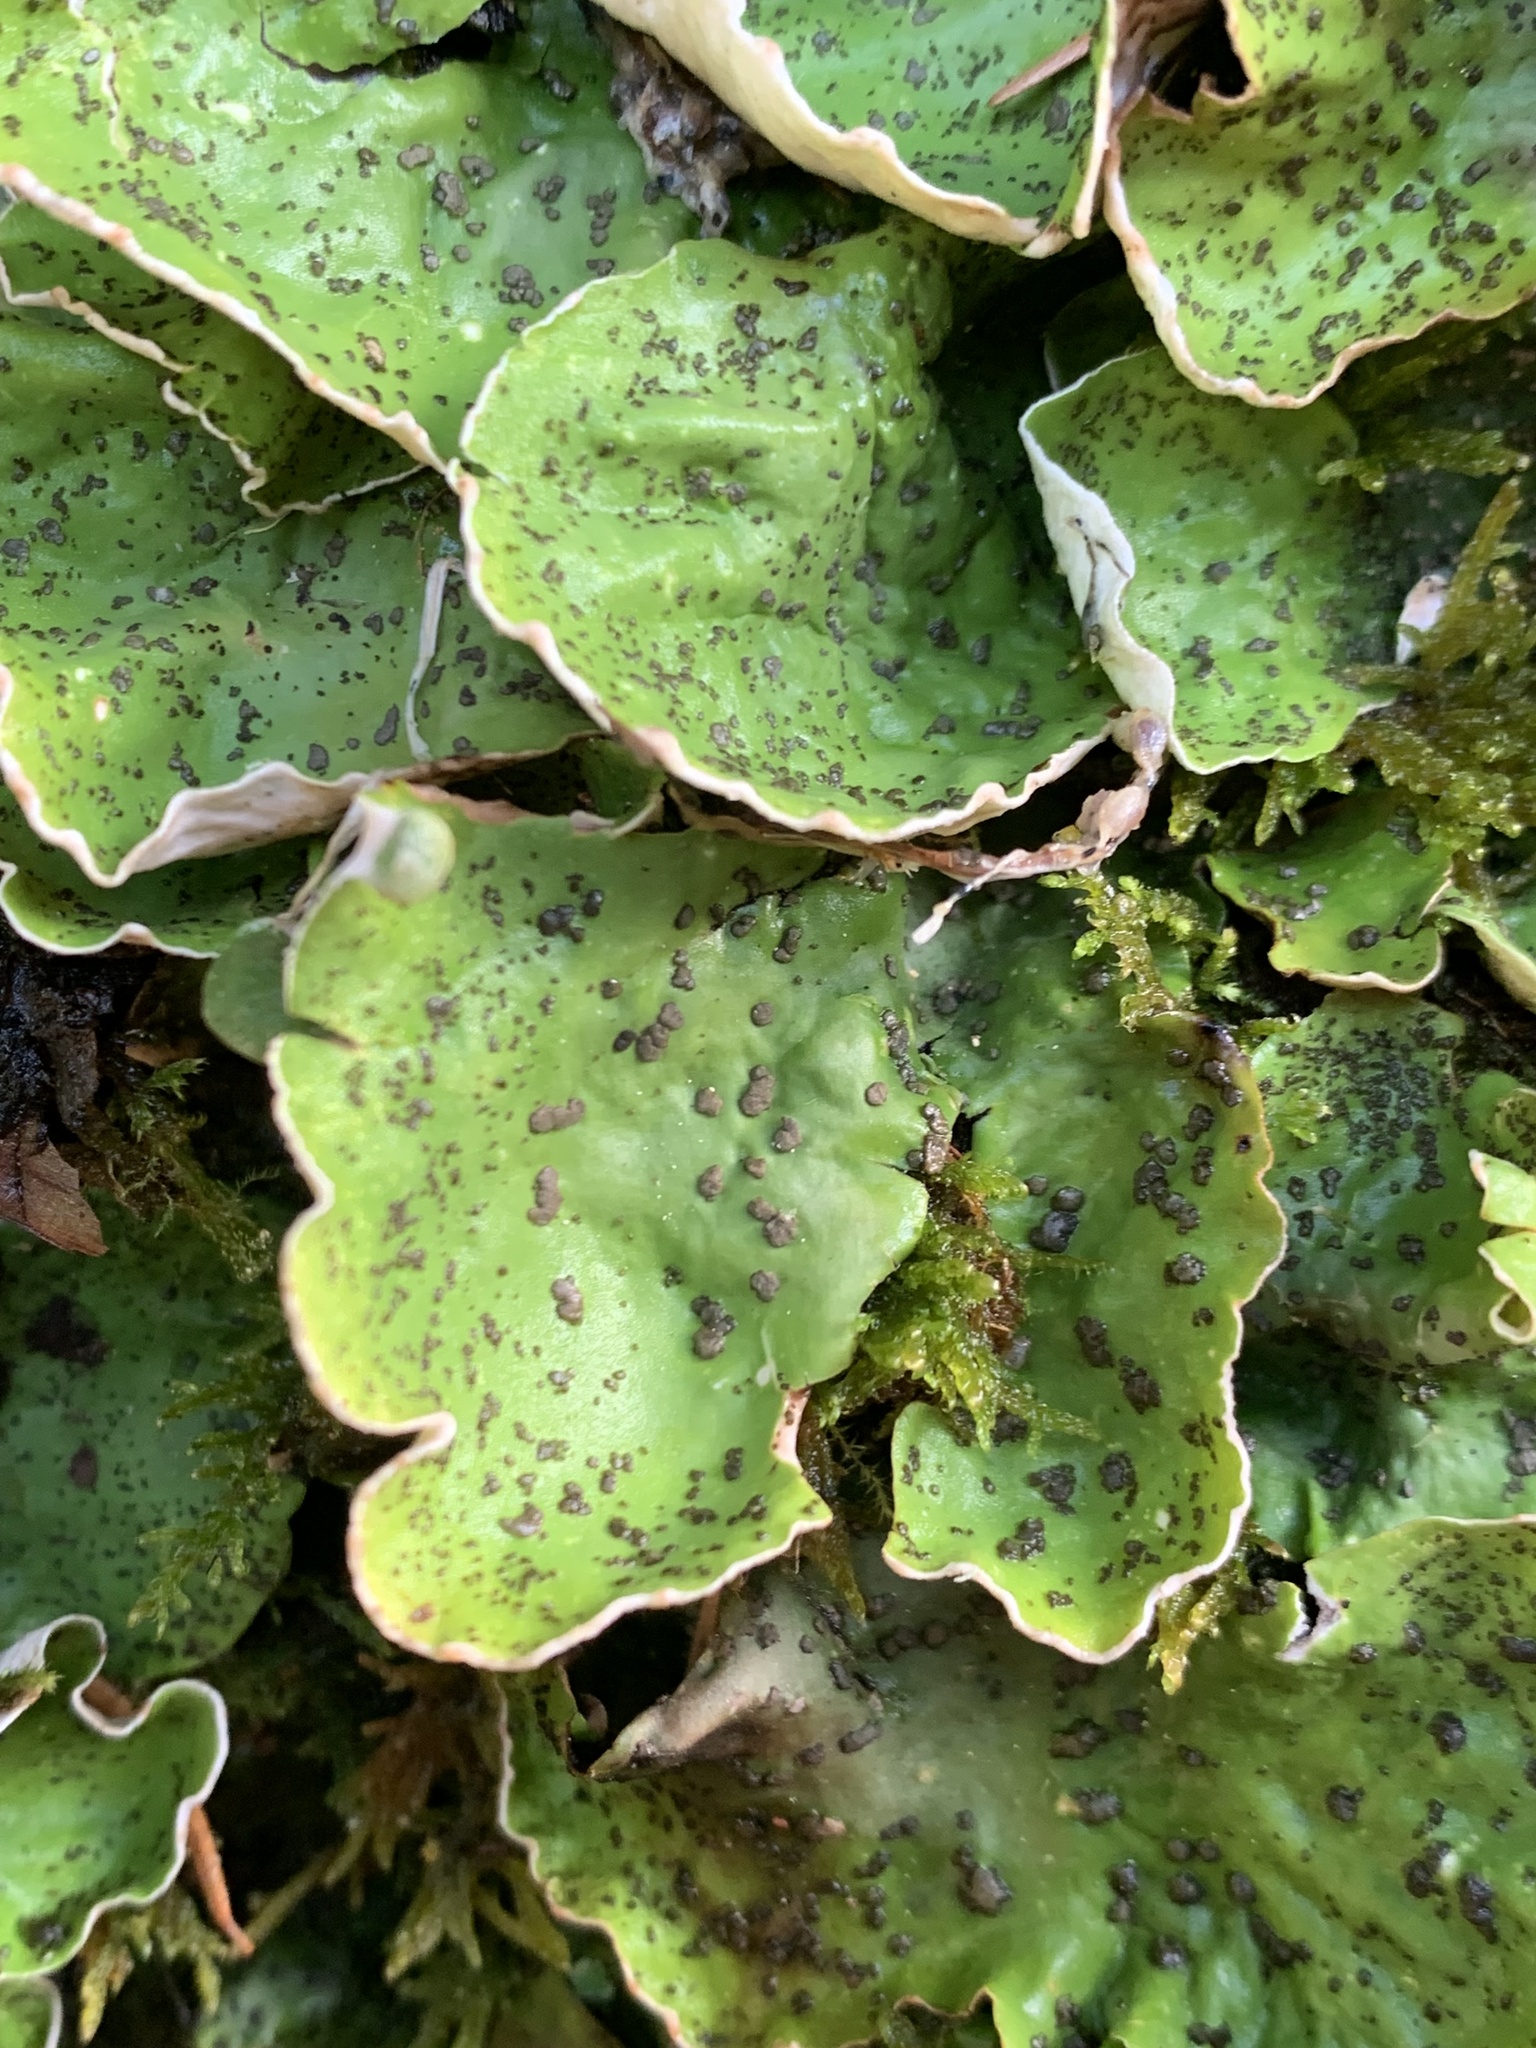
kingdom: Fungi
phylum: Ascomycota
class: Lecanoromycetes
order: Peltigerales
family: Peltigeraceae
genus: Peltigera
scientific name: Peltigera britannica
